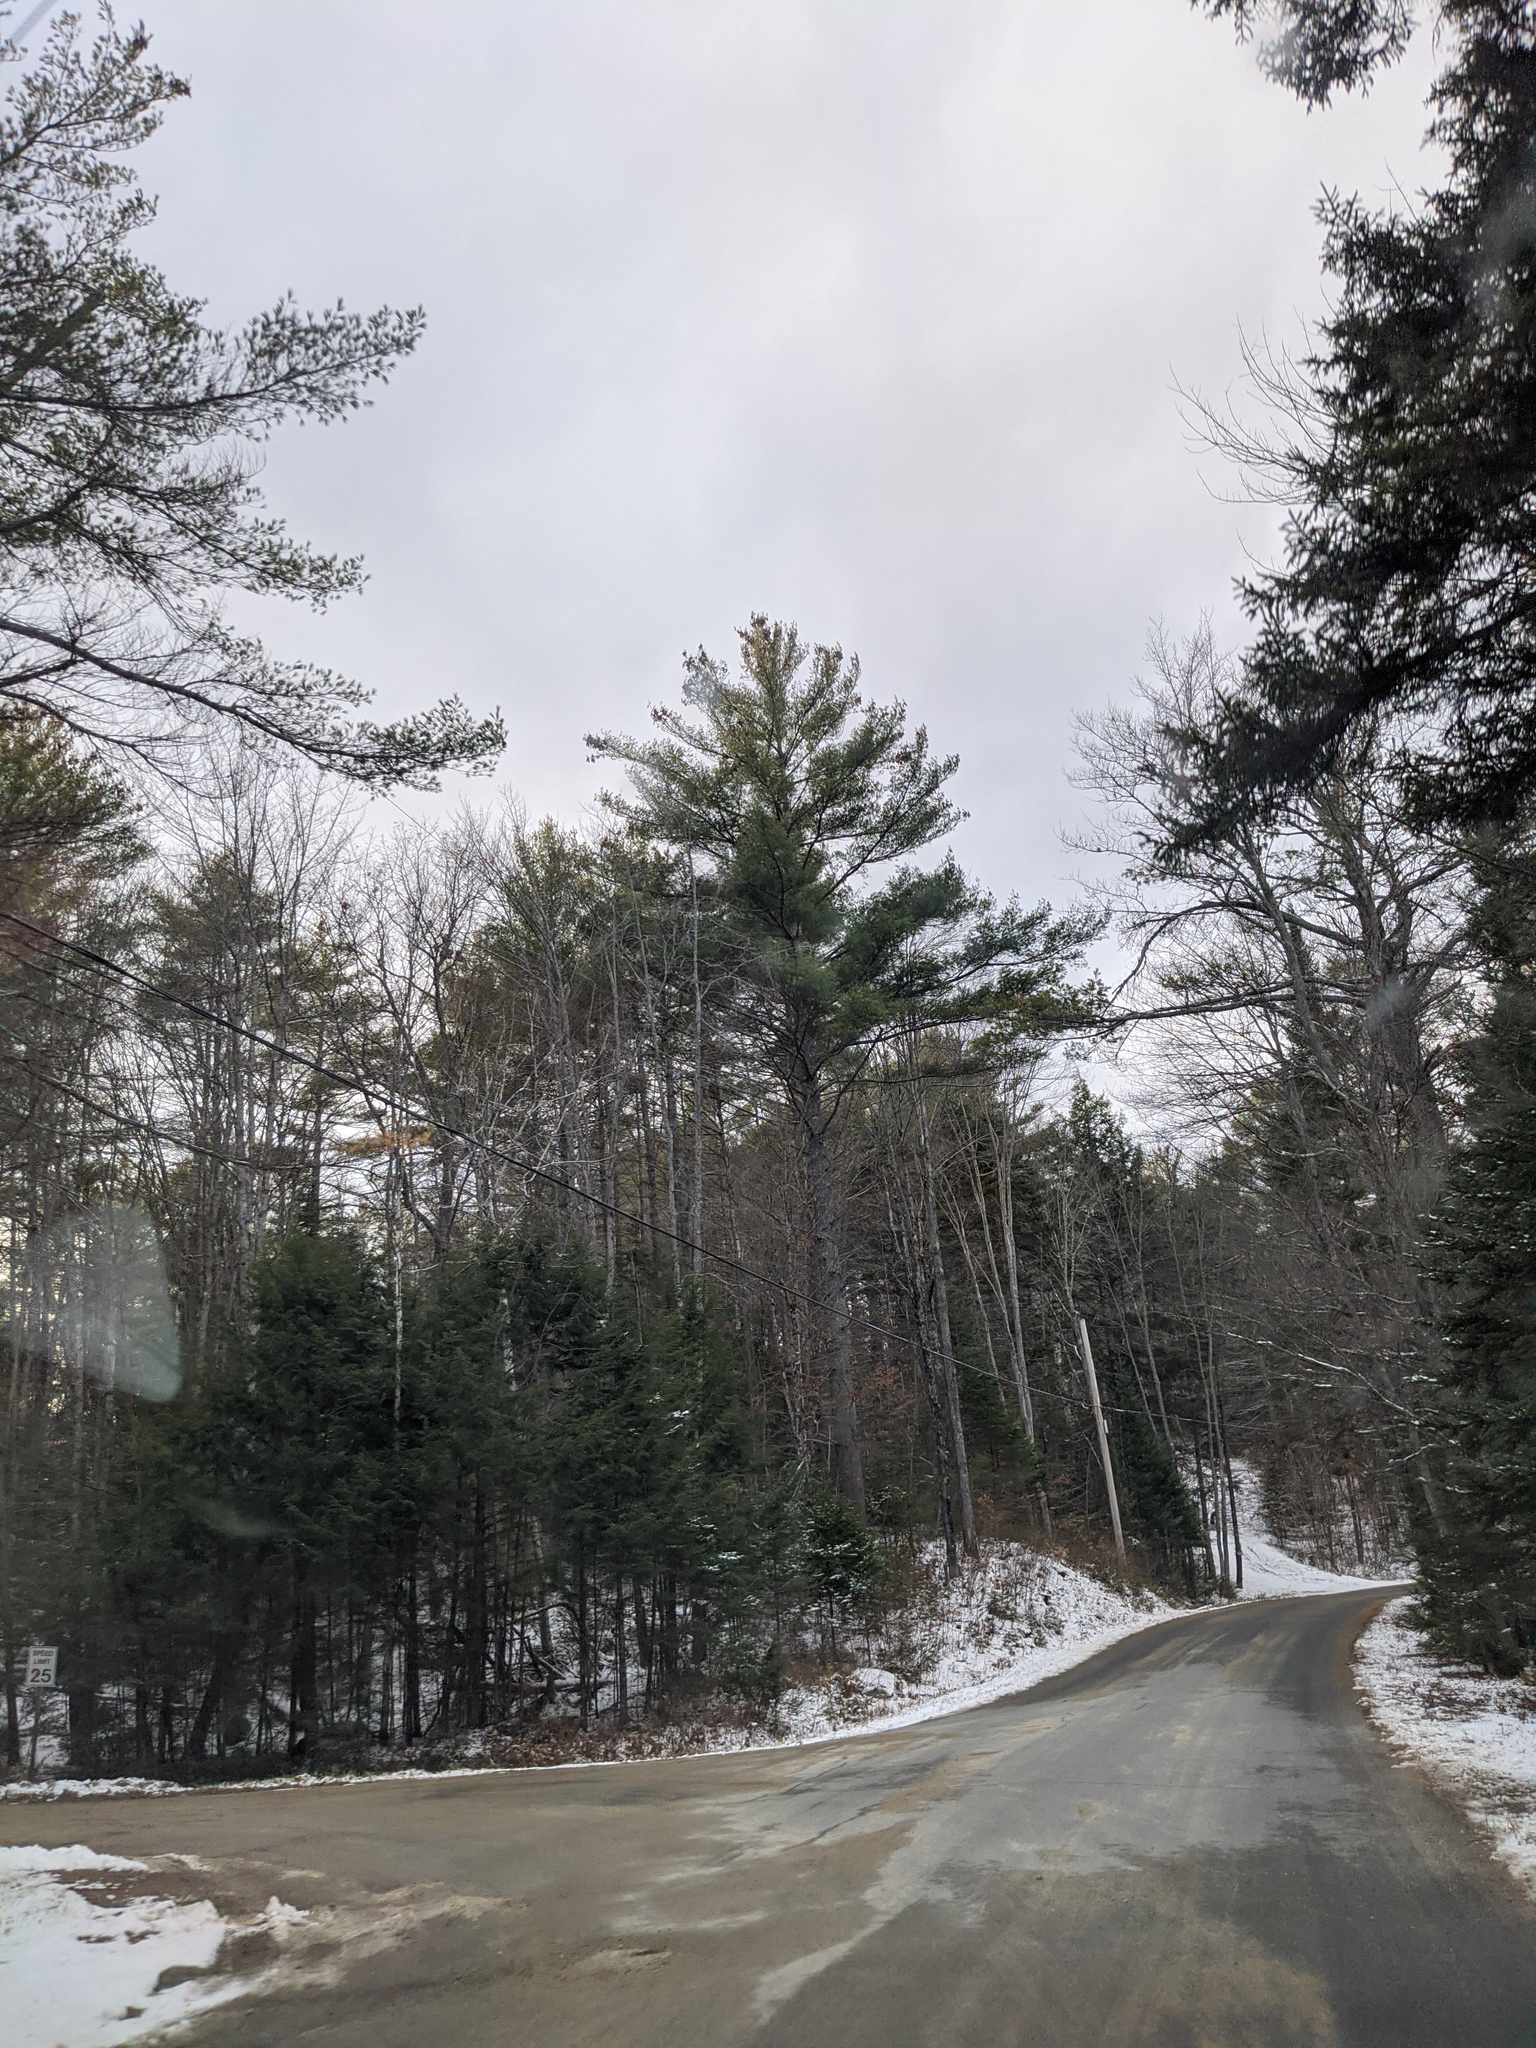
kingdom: Plantae
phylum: Tracheophyta
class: Pinopsida
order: Pinales
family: Pinaceae
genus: Pinus
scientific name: Pinus strobus
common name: Weymouth pine
